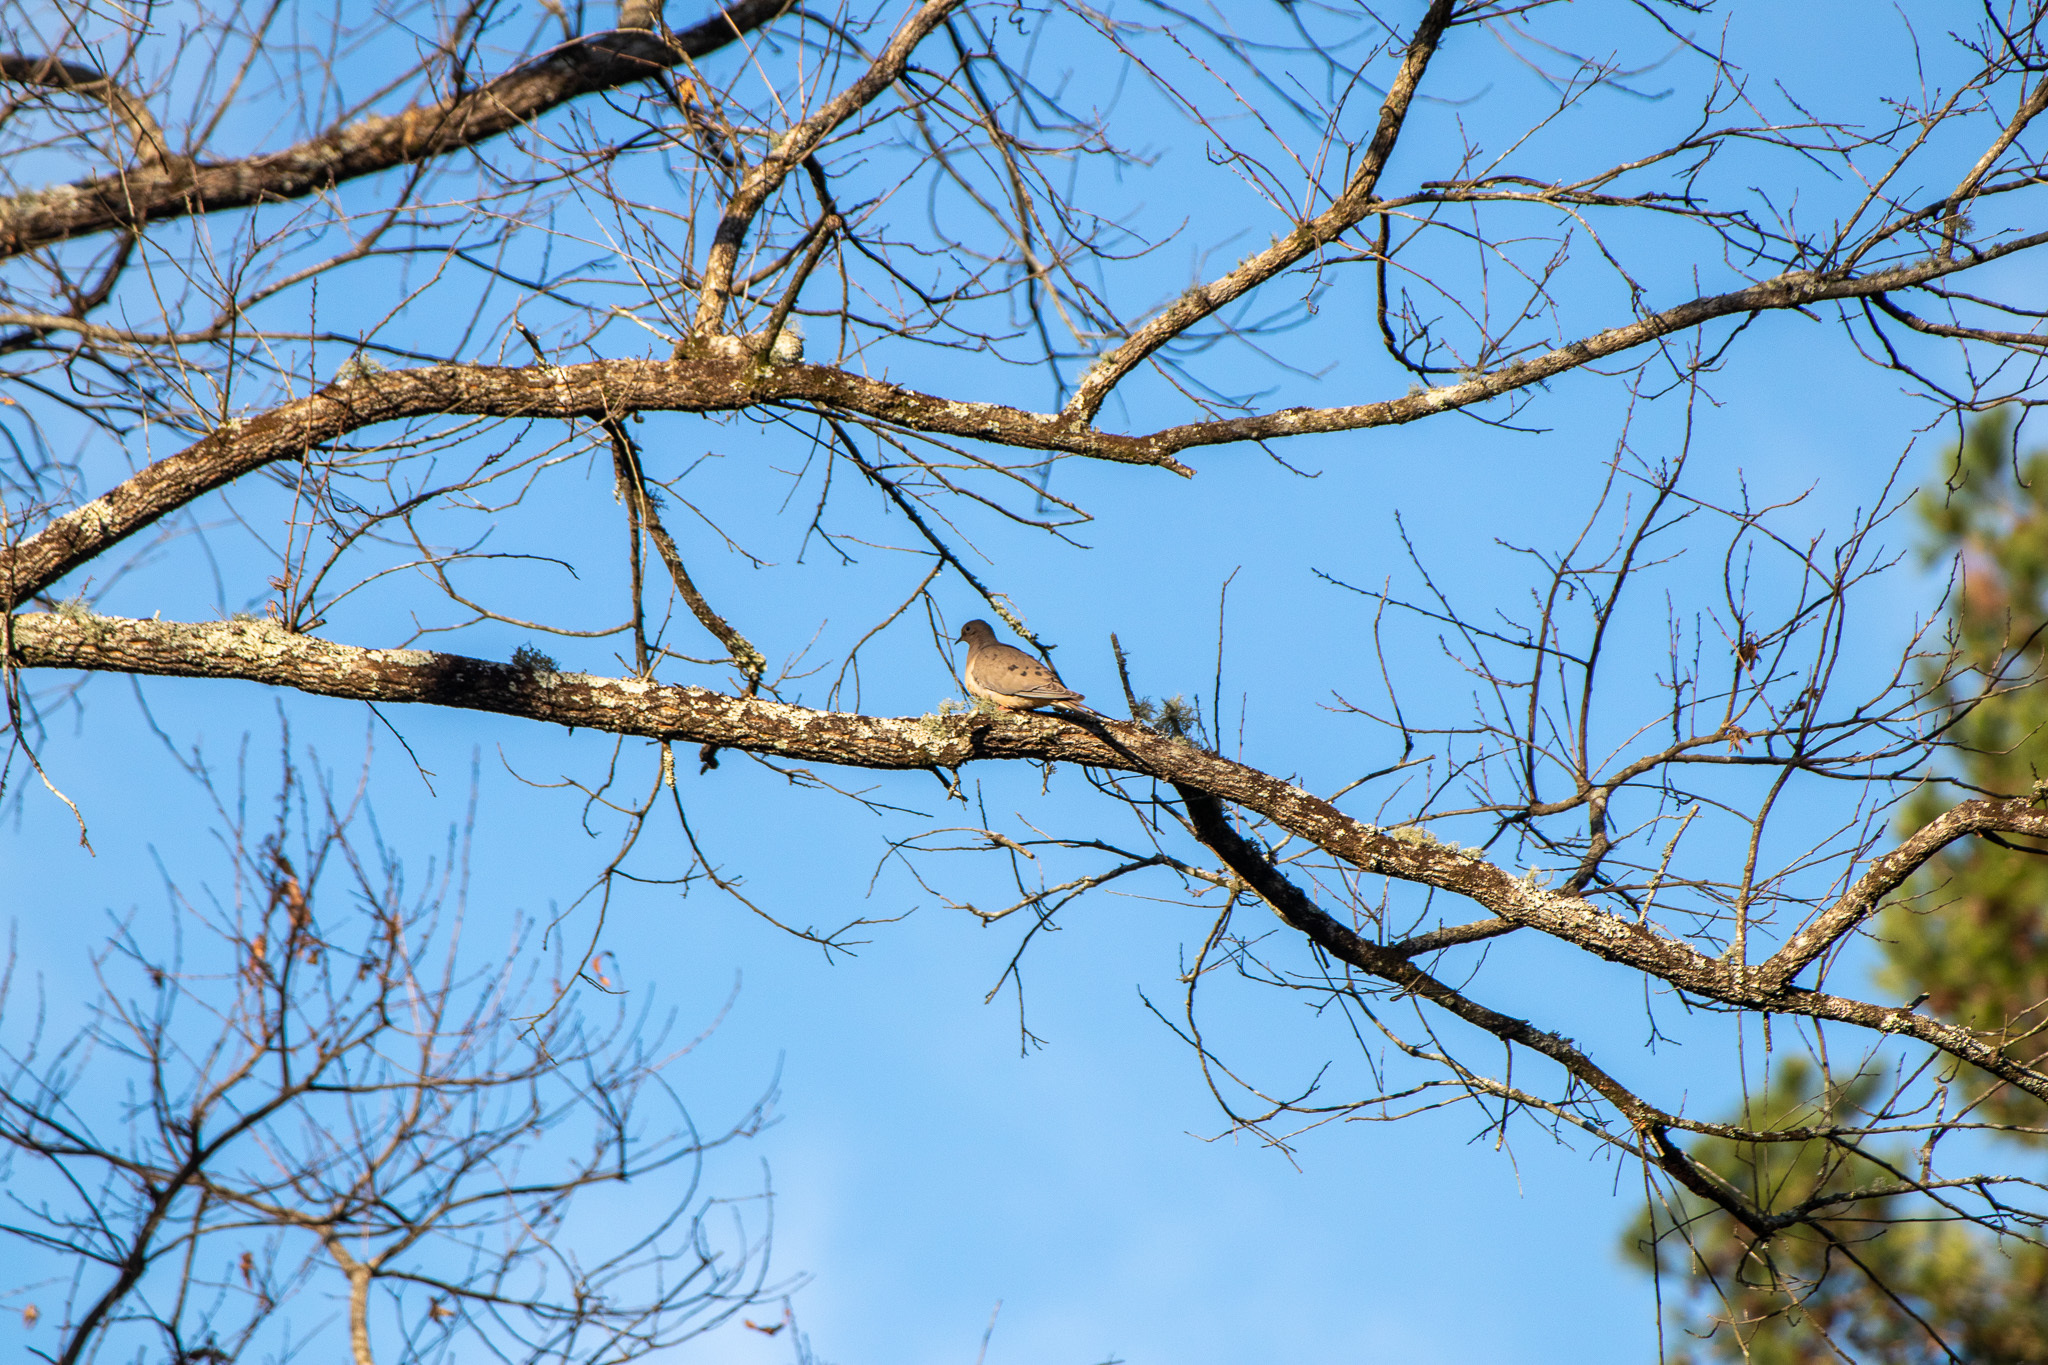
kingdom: Animalia
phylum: Chordata
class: Aves
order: Columbiformes
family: Columbidae
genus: Zenaida
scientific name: Zenaida macroura
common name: Mourning dove
